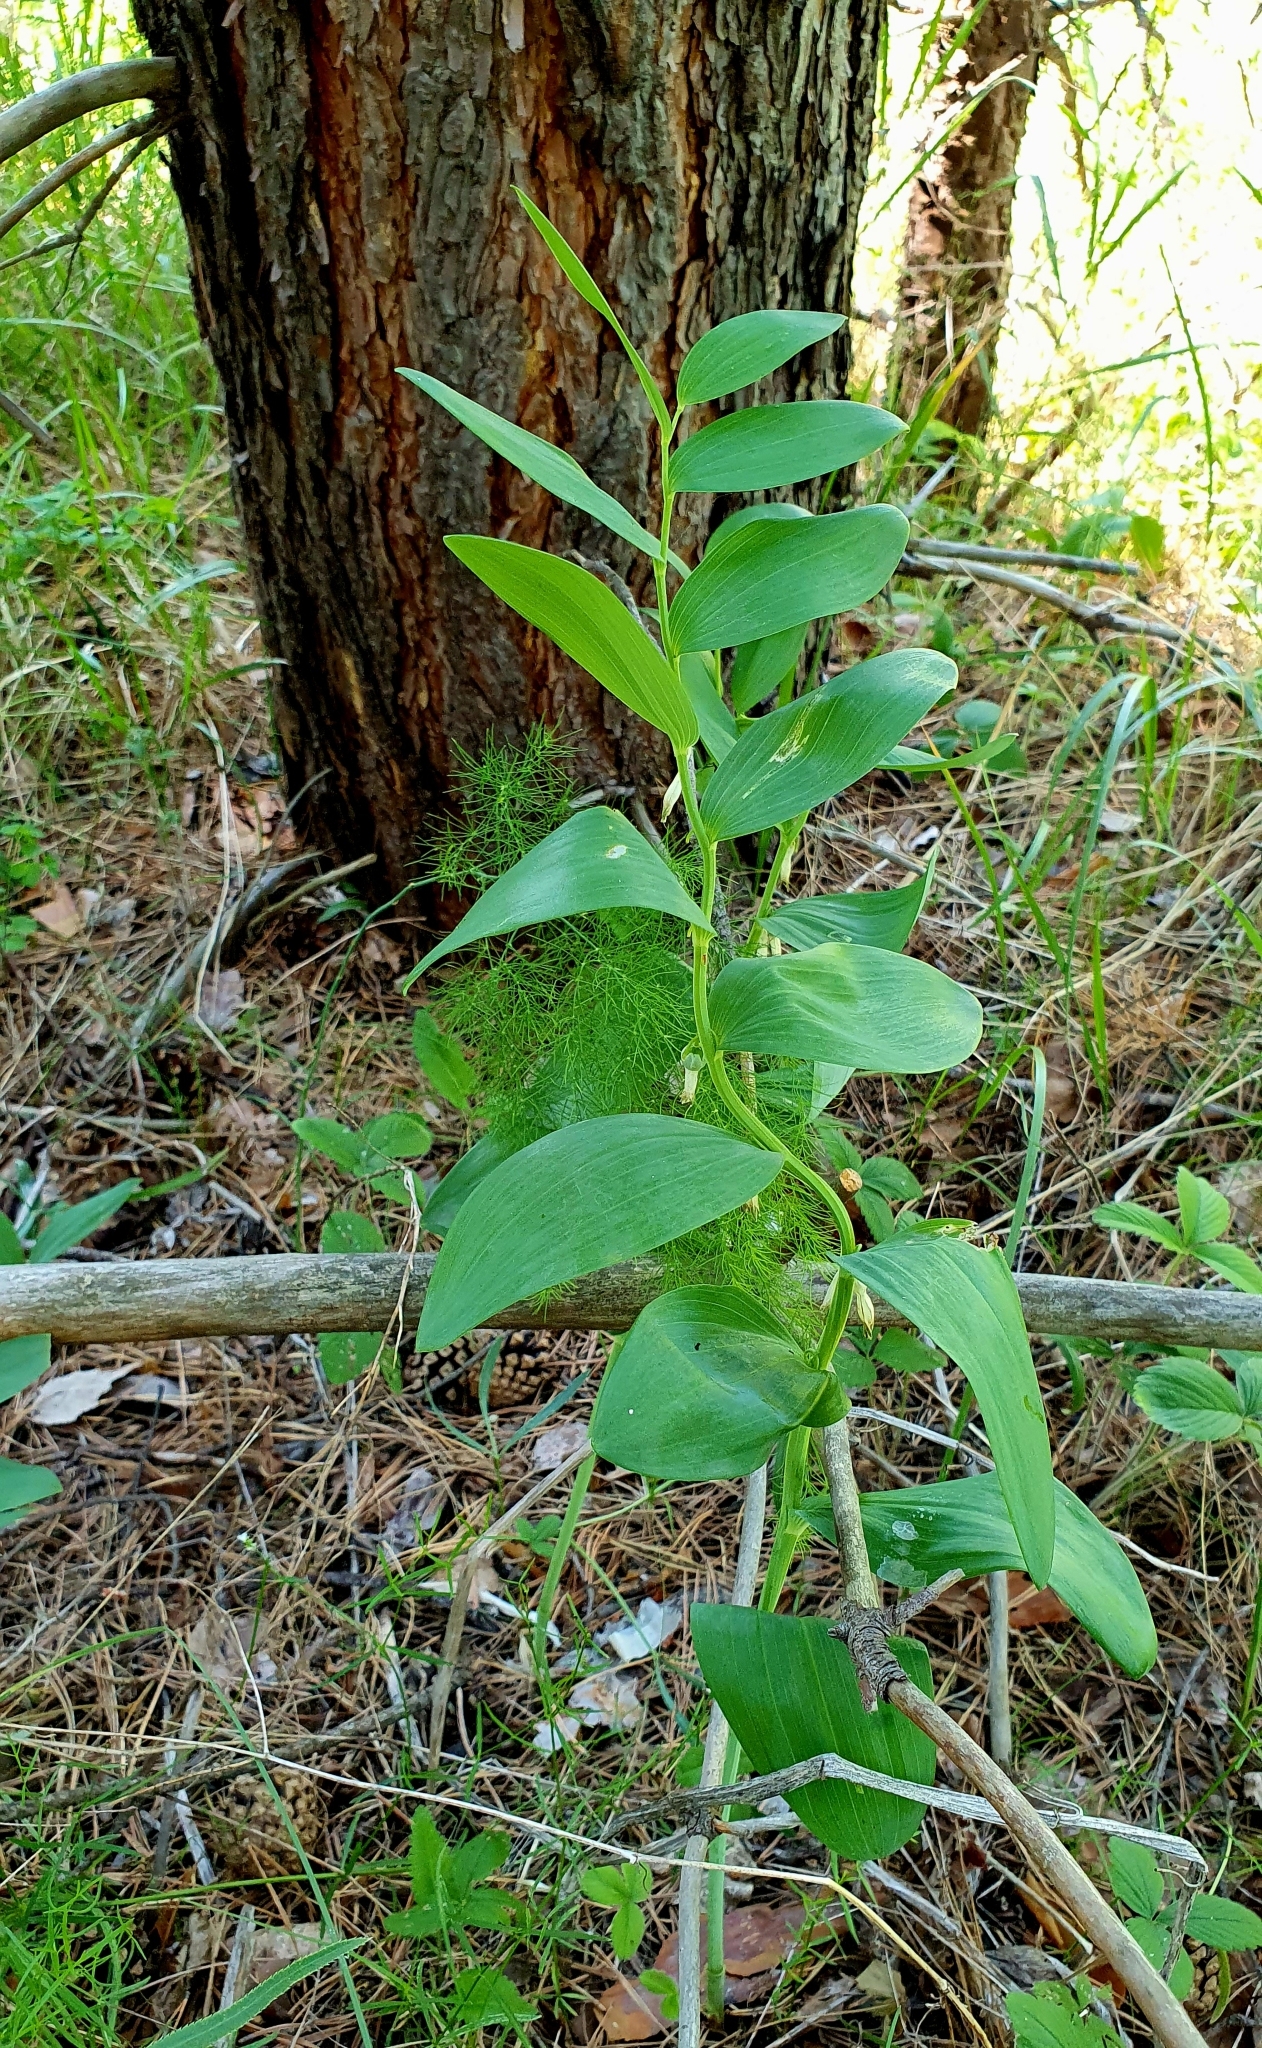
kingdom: Plantae
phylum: Tracheophyta
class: Liliopsida
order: Asparagales
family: Asparagaceae
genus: Polygonatum
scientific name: Polygonatum odoratum
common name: Angular solomon's-seal
